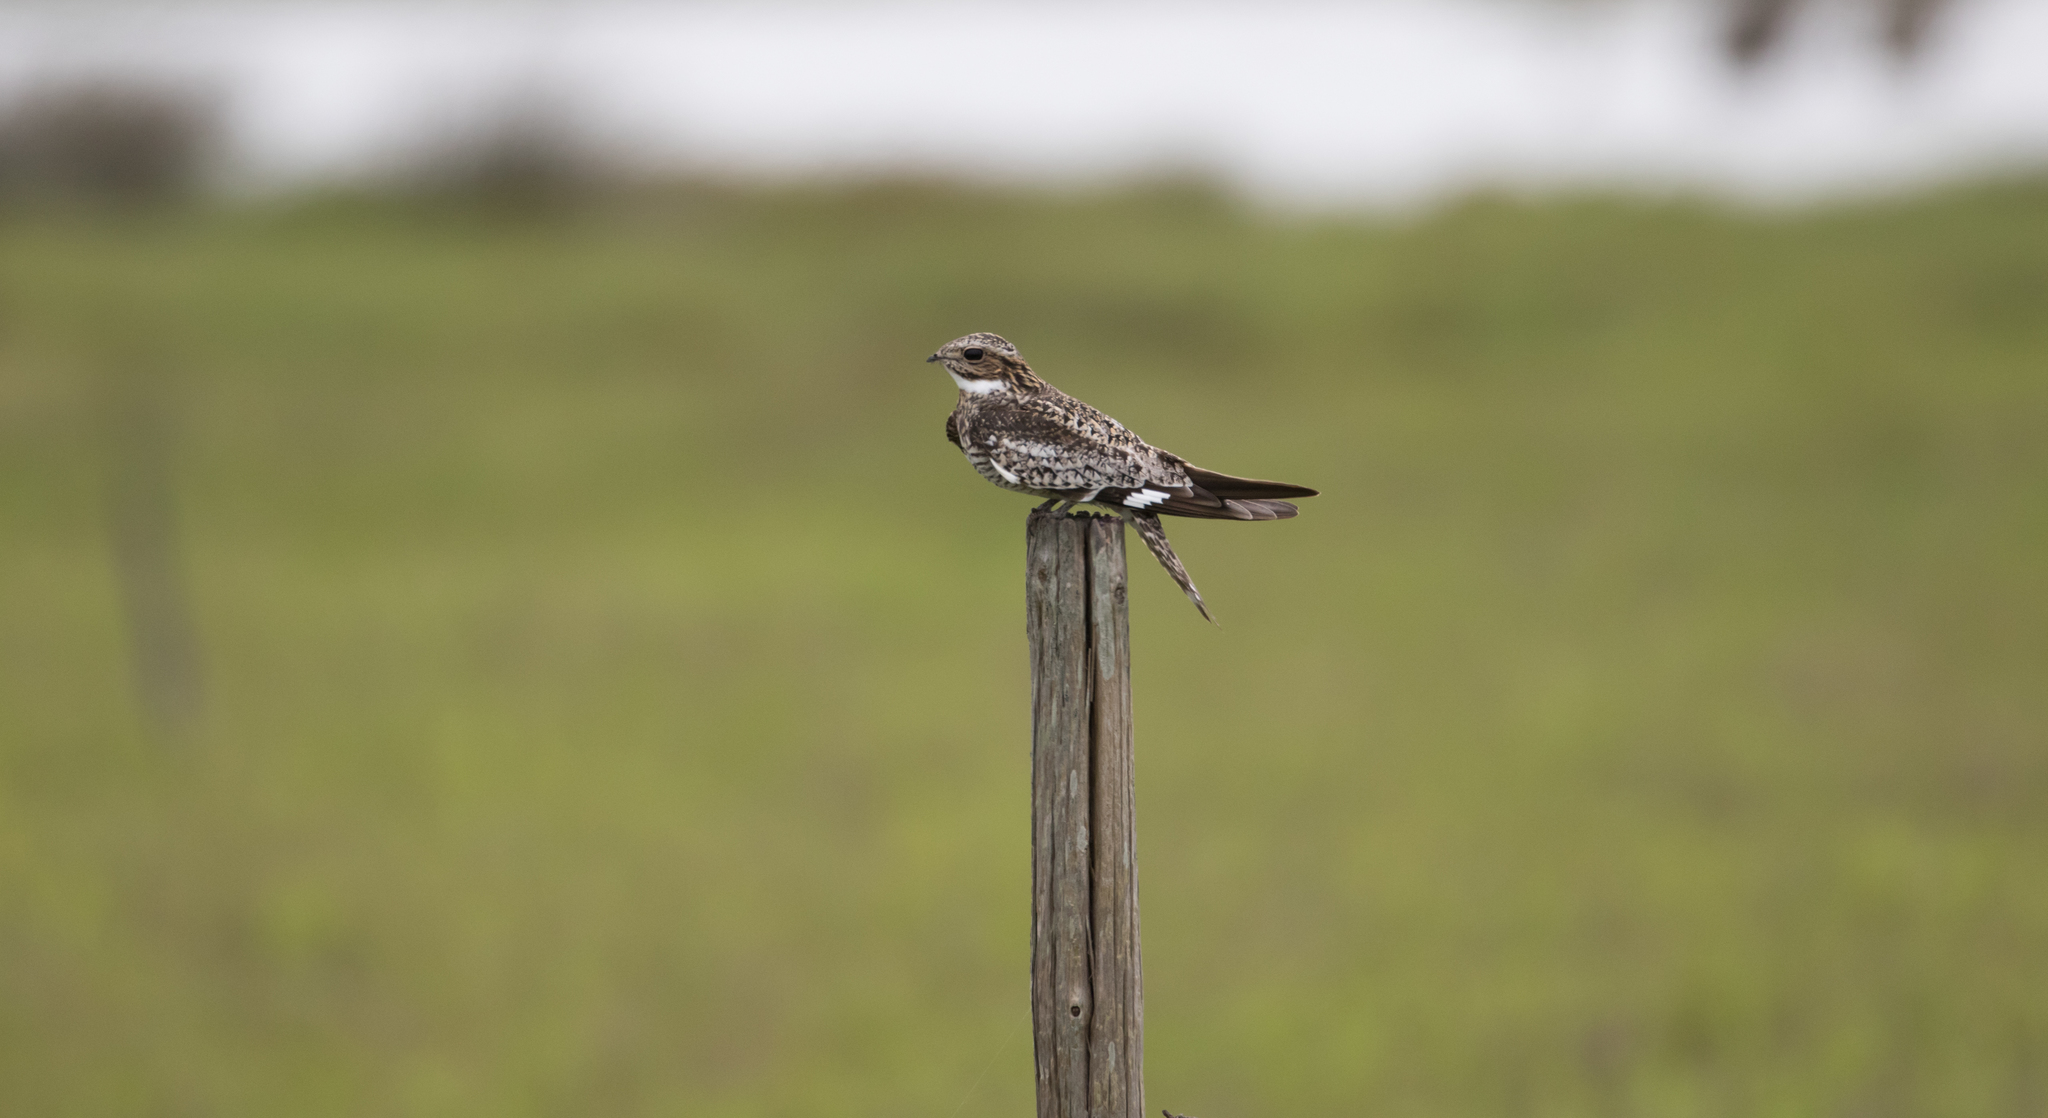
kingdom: Animalia
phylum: Chordata
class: Aves
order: Caprimulgiformes
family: Caprimulgidae
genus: Chordeiles
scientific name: Chordeiles minor
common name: Common nighthawk
